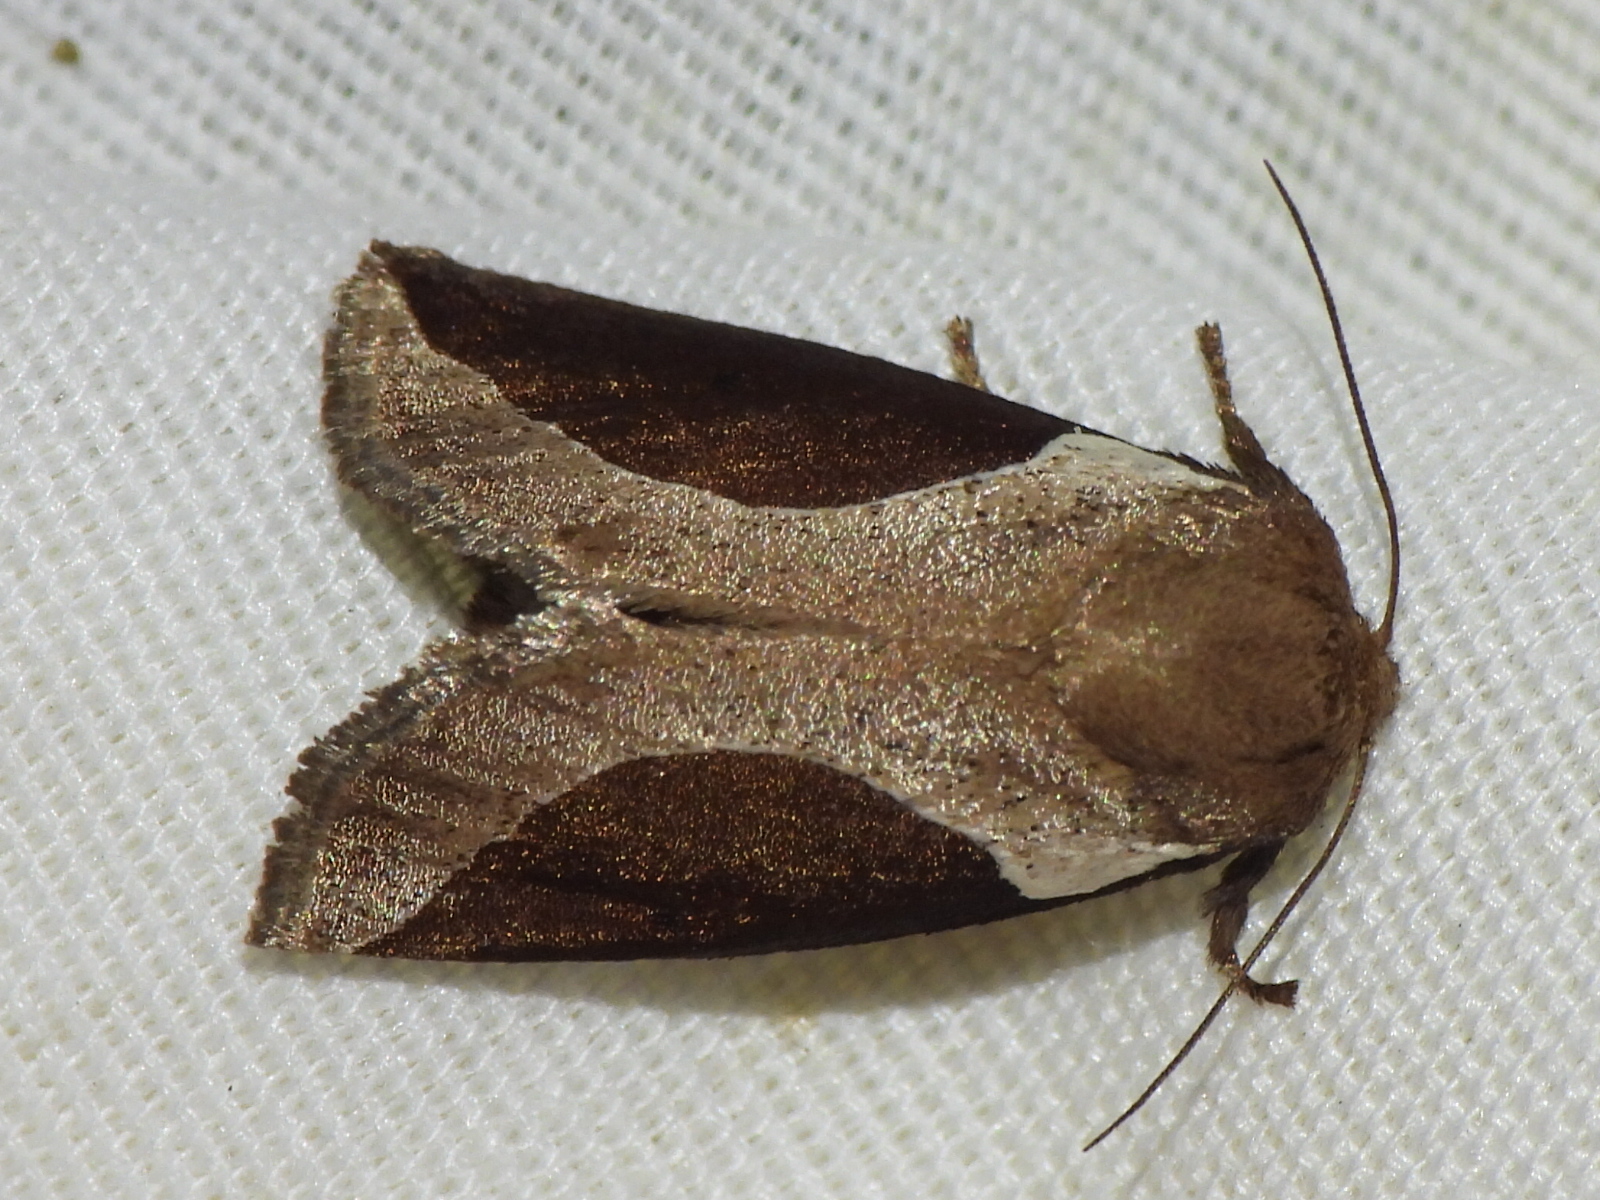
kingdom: Animalia
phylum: Arthropoda
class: Insecta
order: Lepidoptera
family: Limacodidae
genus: Prolimacodes
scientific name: Prolimacodes badia
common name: Skiff moth
